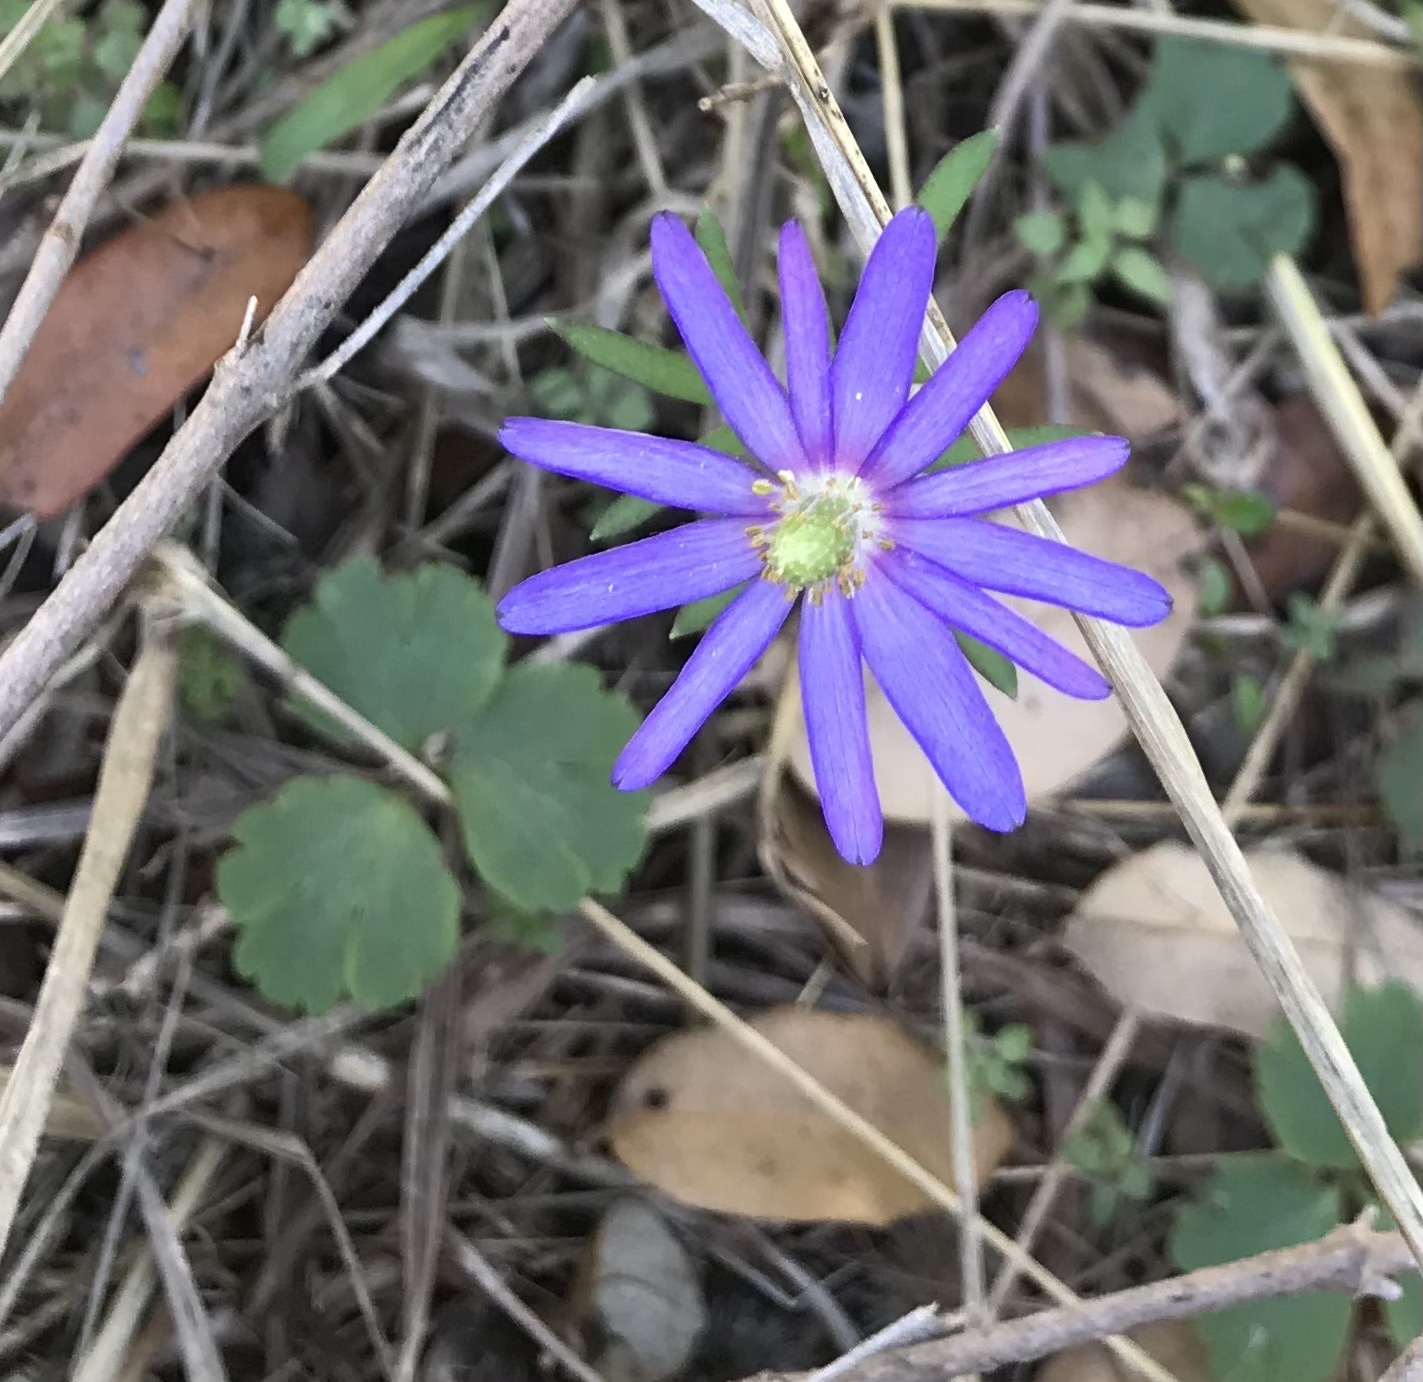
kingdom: Plantae
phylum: Tracheophyta
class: Magnoliopsida
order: Ranunculales
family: Ranunculaceae
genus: Anemone
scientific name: Anemone berlandieri
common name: Ten-petal anemone
